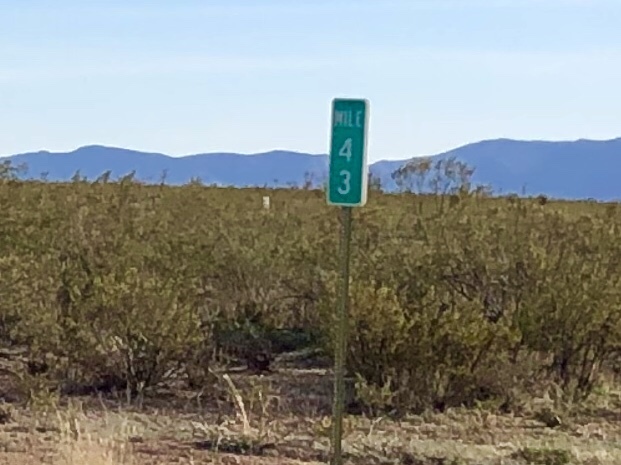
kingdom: Plantae
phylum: Tracheophyta
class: Magnoliopsida
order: Zygophyllales
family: Zygophyllaceae
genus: Larrea
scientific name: Larrea tridentata
